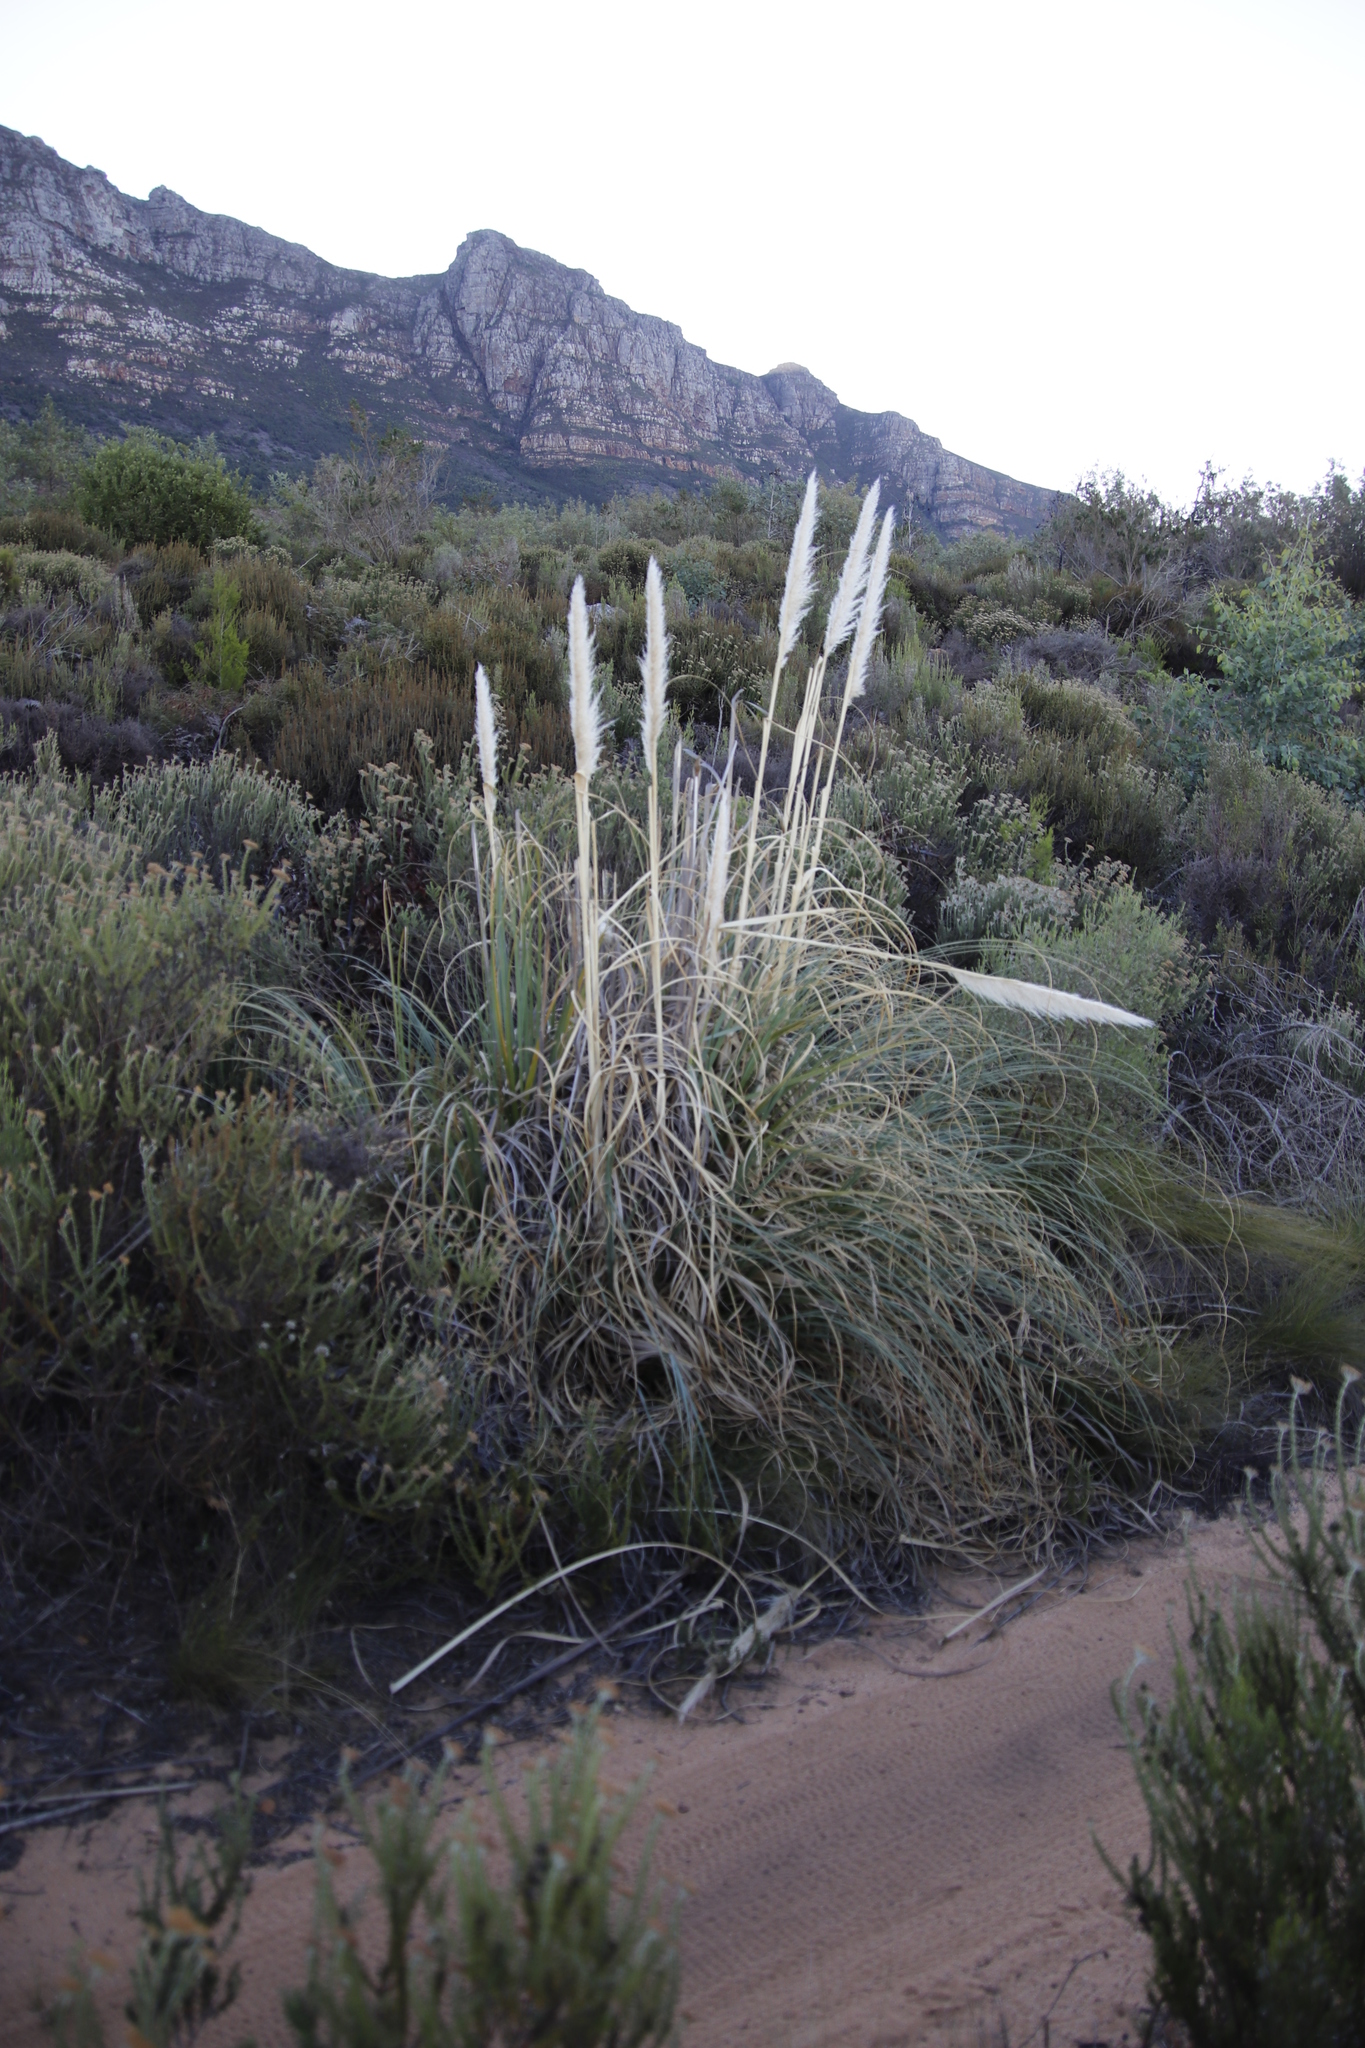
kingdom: Plantae
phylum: Tracheophyta
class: Liliopsida
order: Poales
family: Poaceae
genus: Cortaderia
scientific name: Cortaderia selloana
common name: Uruguayan pampas grass
